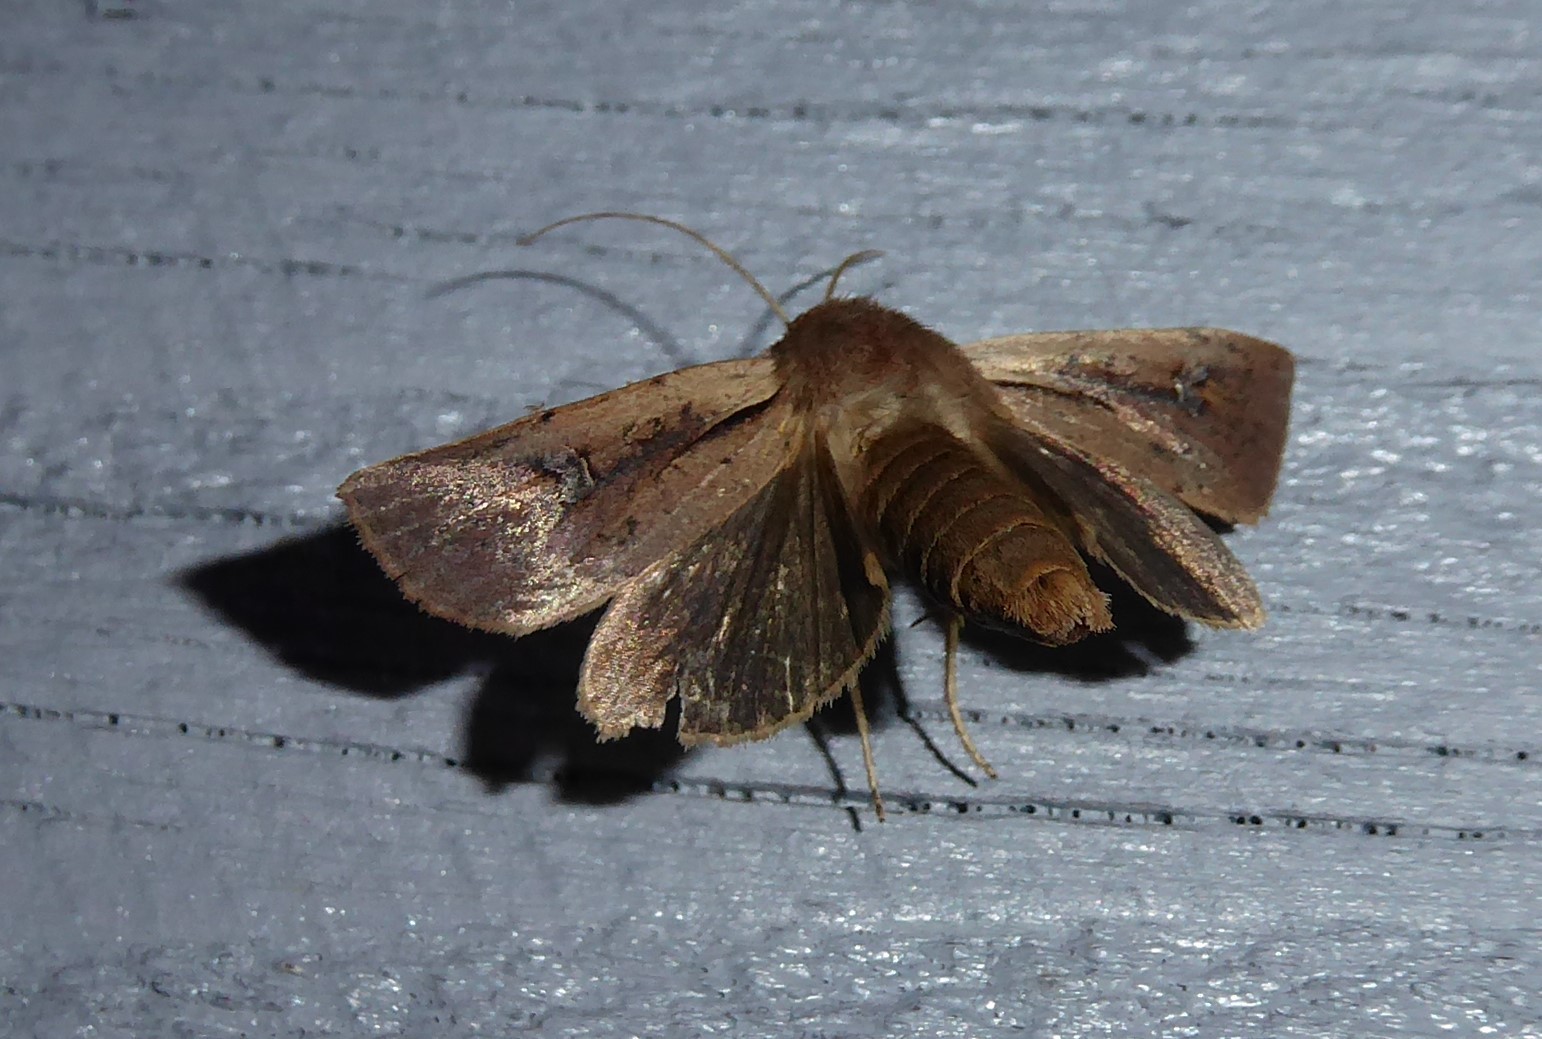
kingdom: Animalia
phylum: Arthropoda
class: Insecta
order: Lepidoptera
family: Noctuidae
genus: Ichneutica
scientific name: Ichneutica atristriga
